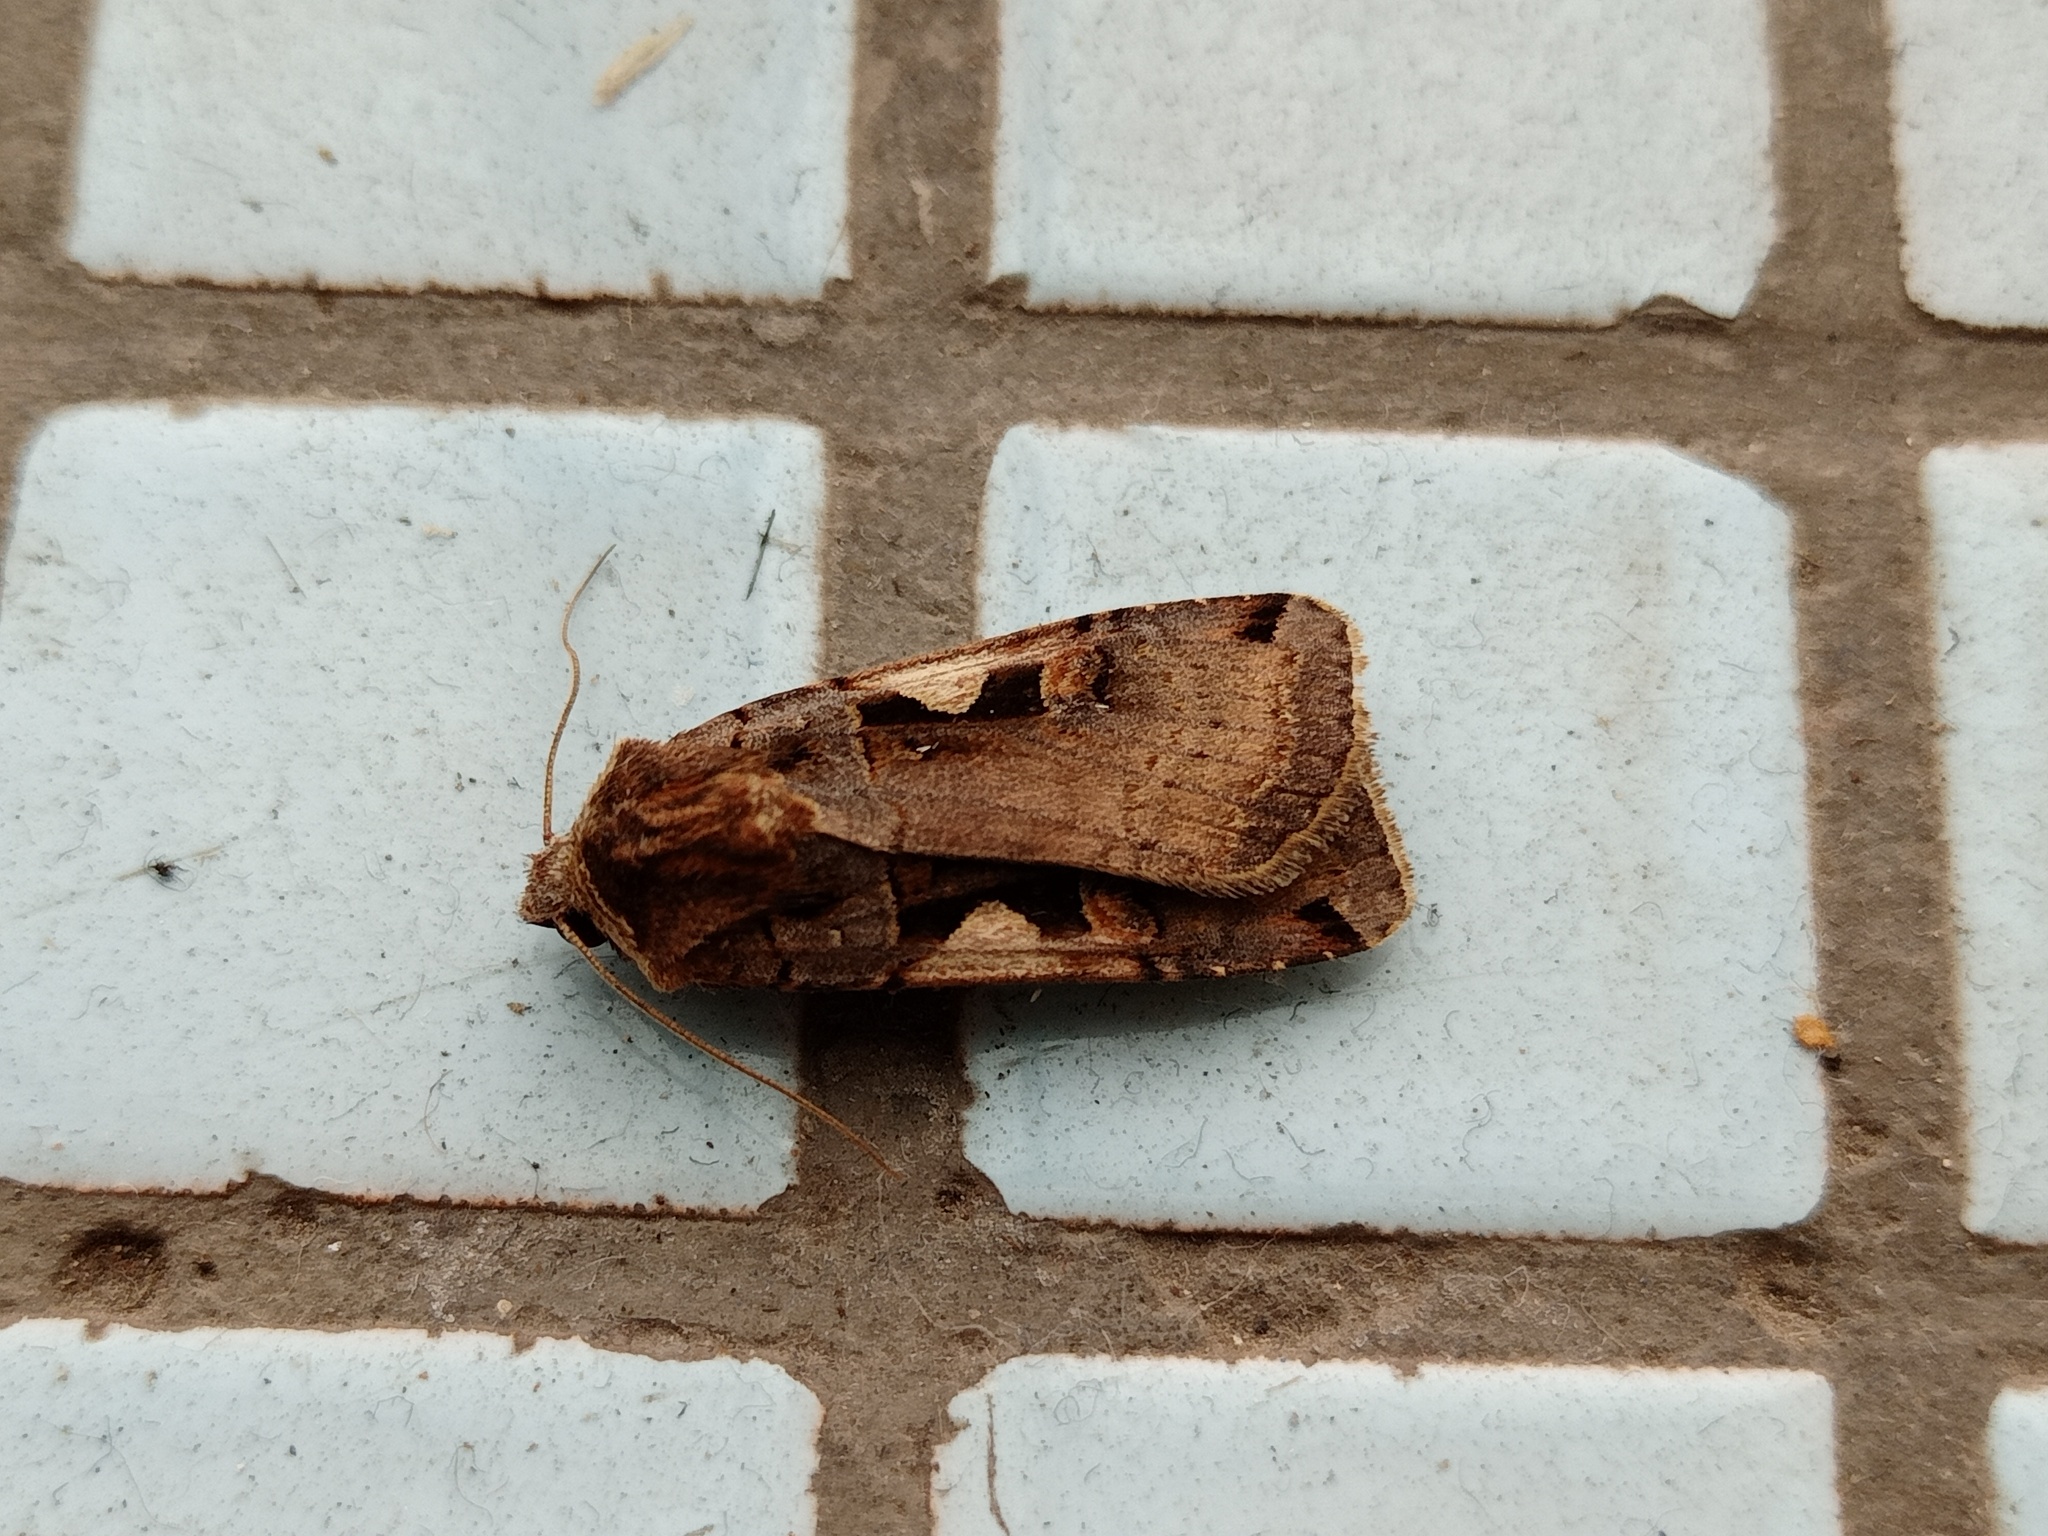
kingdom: Animalia
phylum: Arthropoda
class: Insecta
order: Lepidoptera
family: Noctuidae
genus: Xestia
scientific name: Xestia c-nigrum
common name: Setaceous hebrew character
